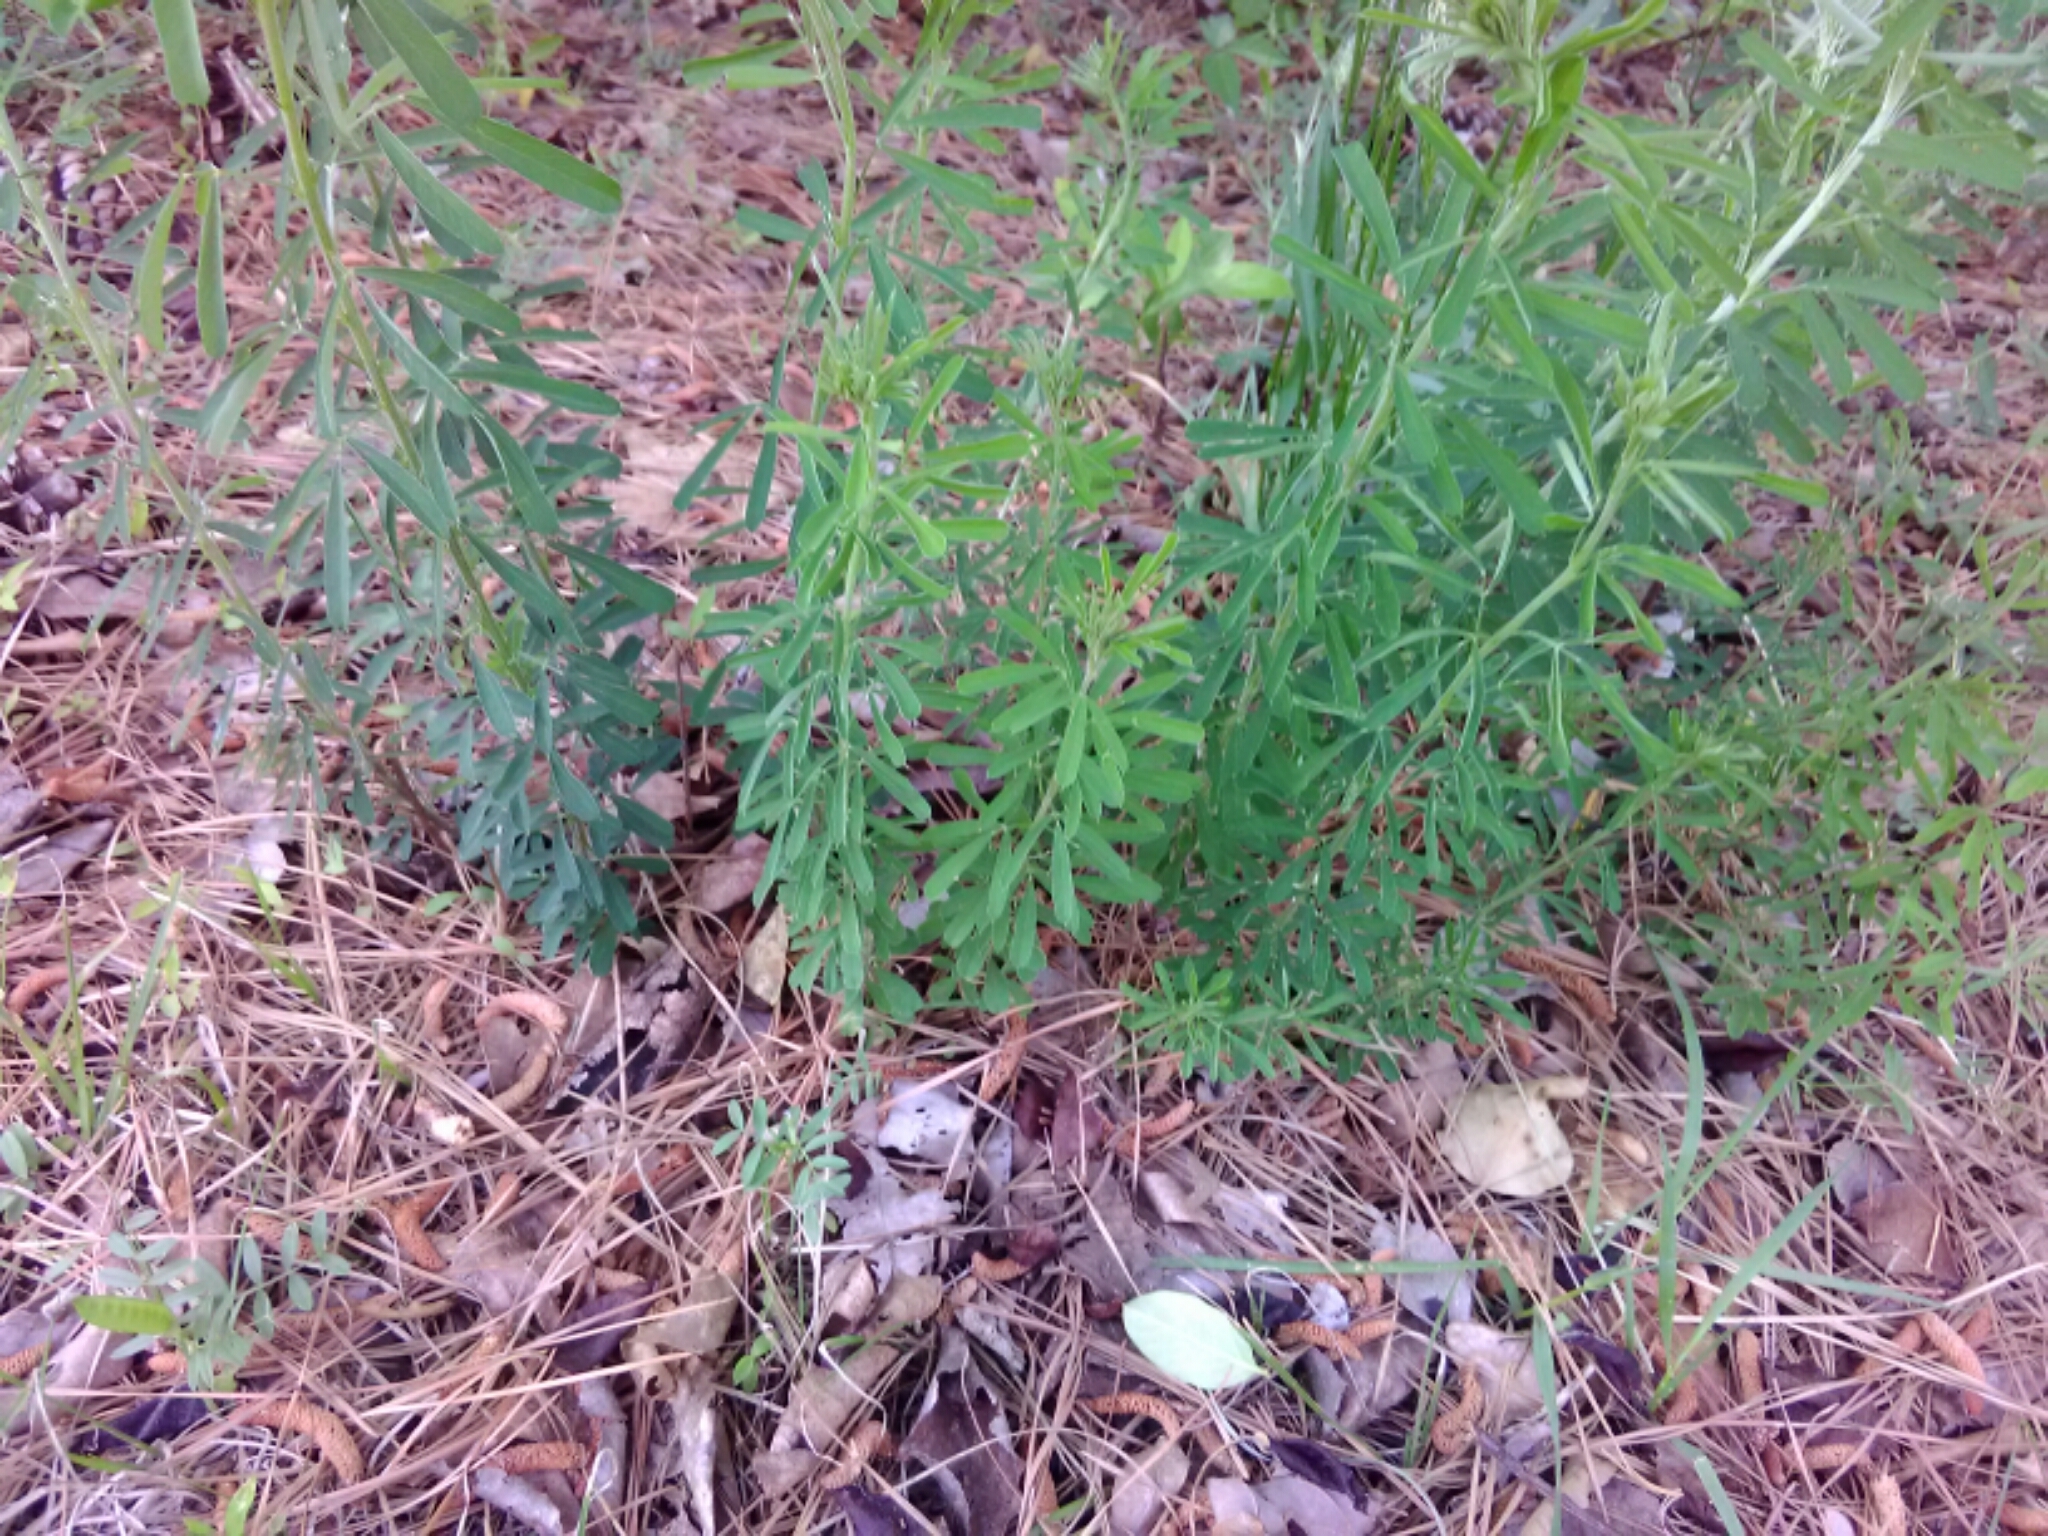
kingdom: Plantae
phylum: Tracheophyta
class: Magnoliopsida
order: Fabales
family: Fabaceae
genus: Lespedeza
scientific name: Lespedeza cuneata
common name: Chinese bush-clover
